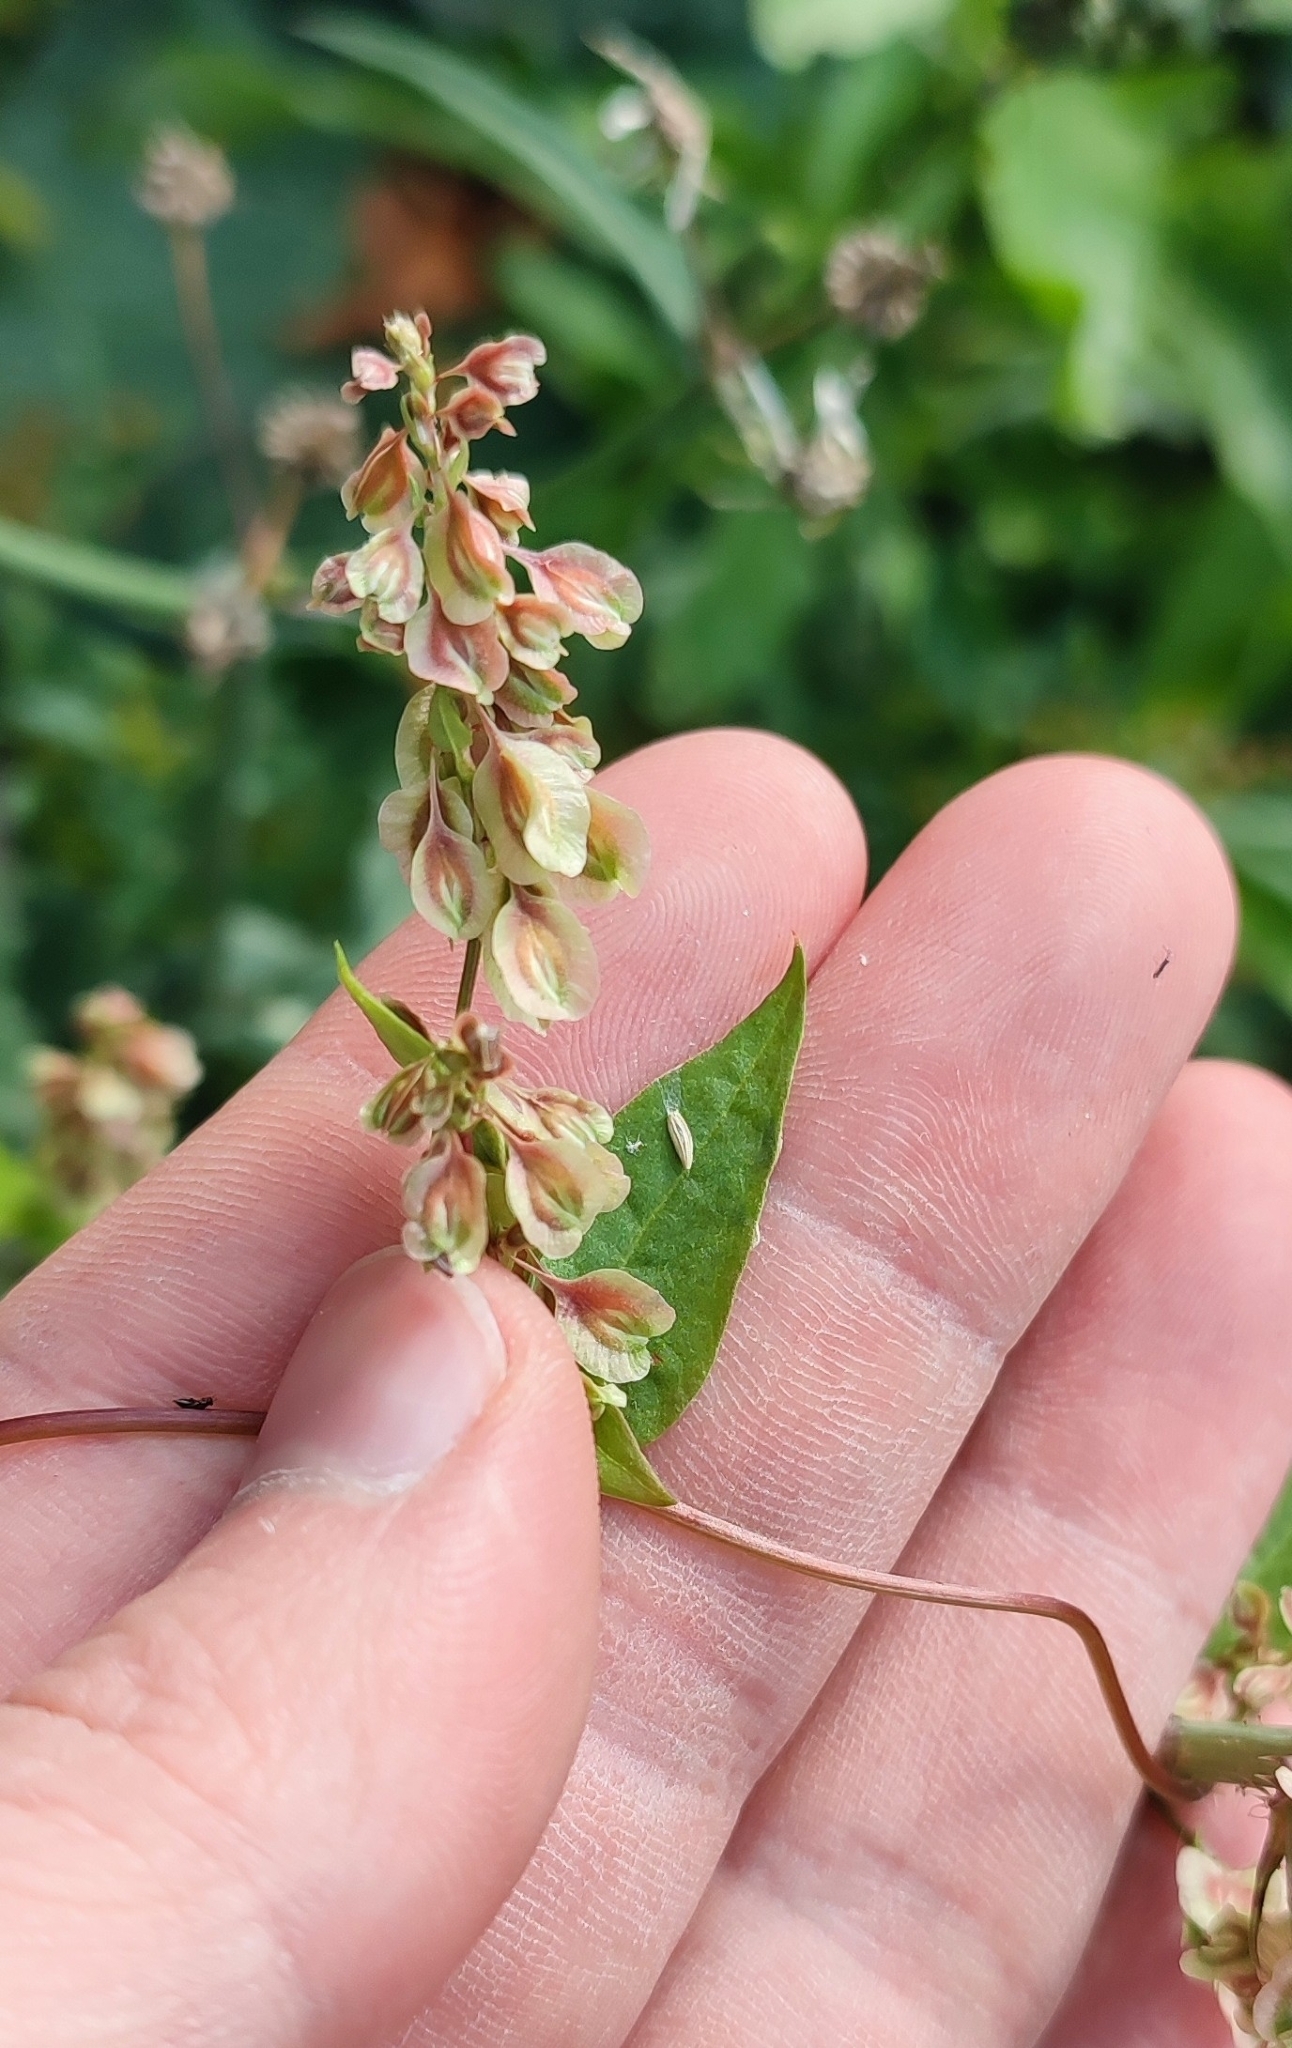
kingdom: Plantae
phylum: Tracheophyta
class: Magnoliopsida
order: Caryophyllales
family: Polygonaceae
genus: Fallopia
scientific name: Fallopia dumetorum
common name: Copse-bindweed
